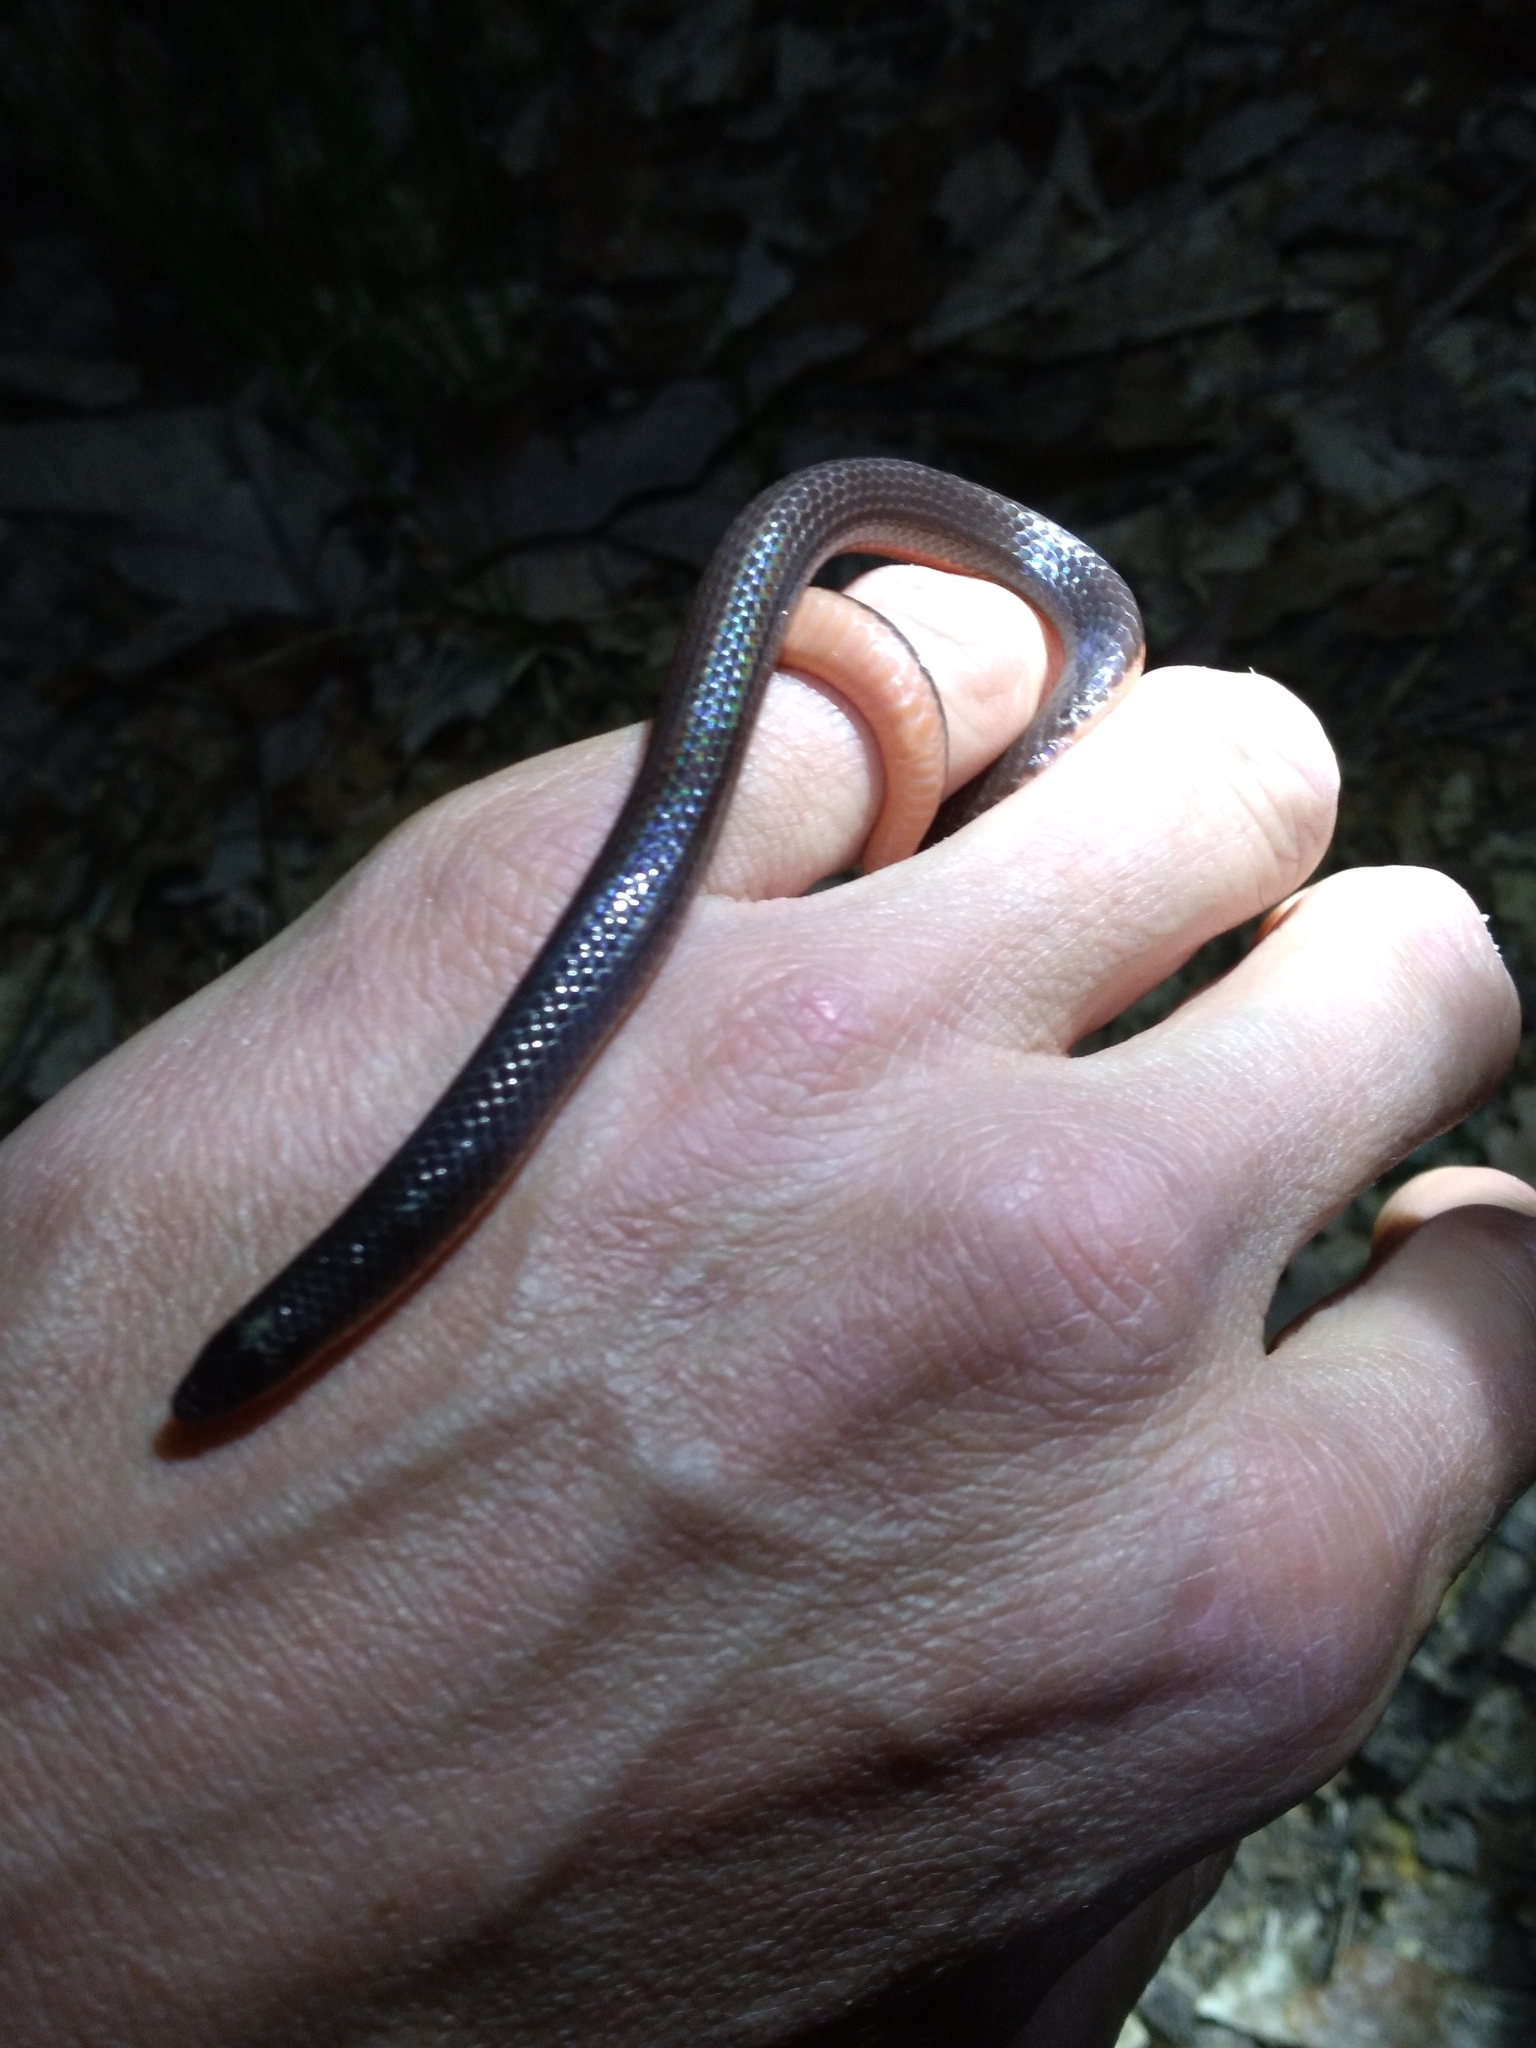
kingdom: Animalia
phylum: Chordata
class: Squamata
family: Colubridae
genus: Carphophis
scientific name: Carphophis amoenus
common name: Eastern worm snake
